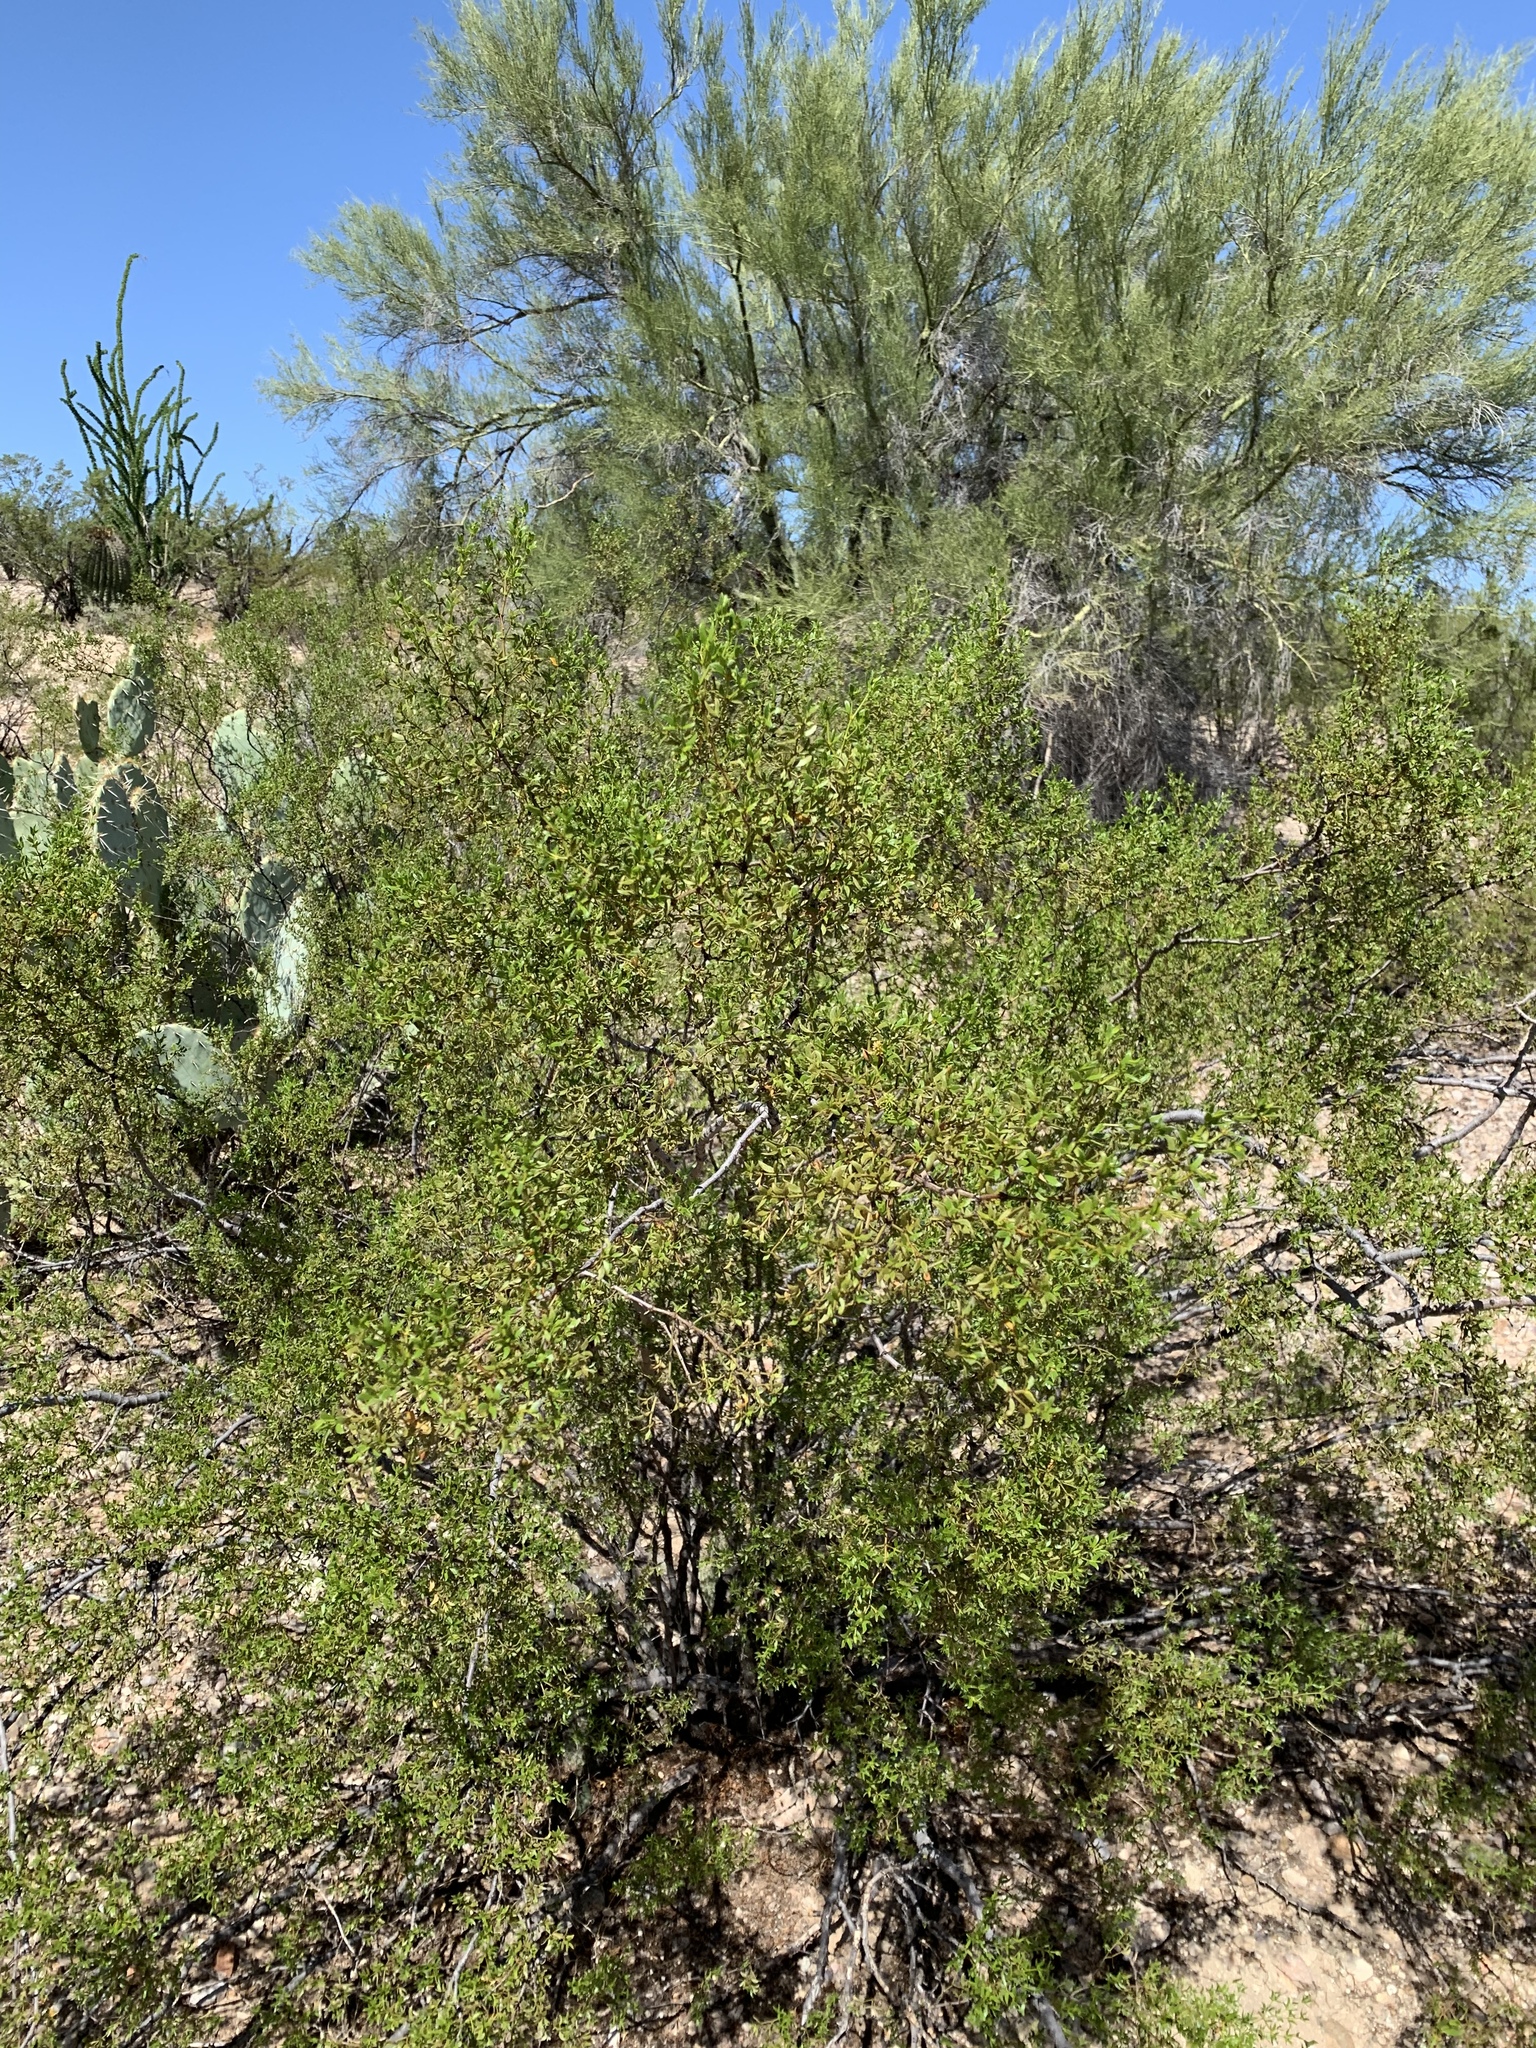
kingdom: Plantae
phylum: Tracheophyta
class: Magnoliopsida
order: Zygophyllales
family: Zygophyllaceae
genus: Larrea
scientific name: Larrea tridentata
